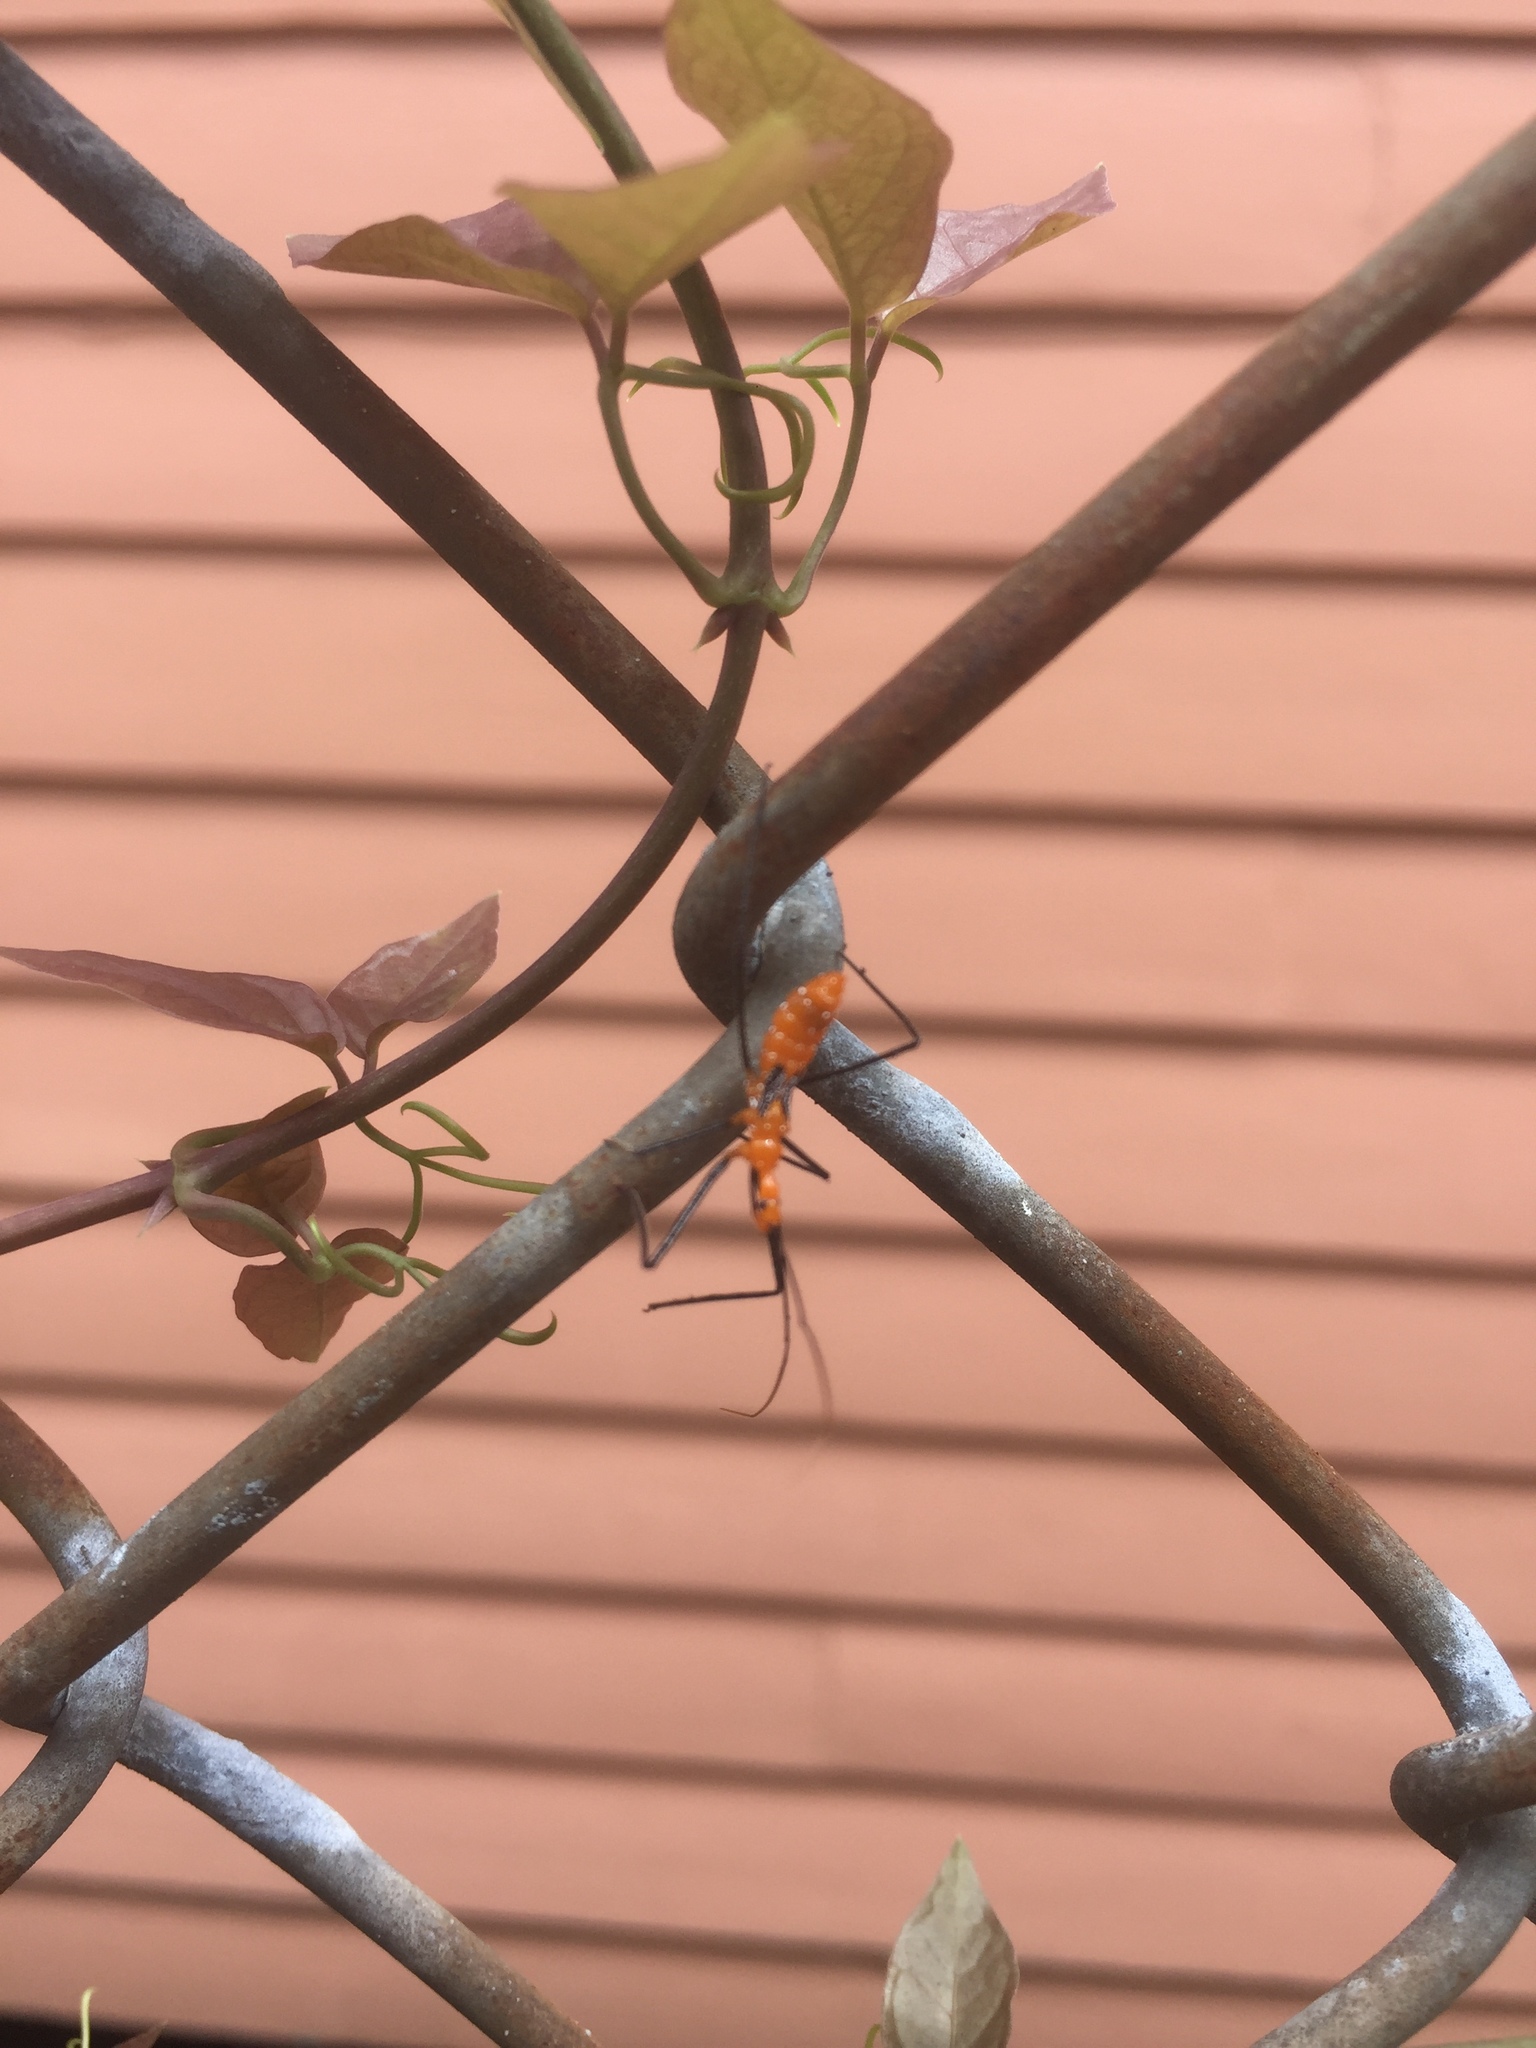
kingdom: Animalia
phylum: Arthropoda
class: Insecta
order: Hemiptera
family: Reduviidae
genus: Zelus
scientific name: Zelus longipes
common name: Milkweed assassin bug
